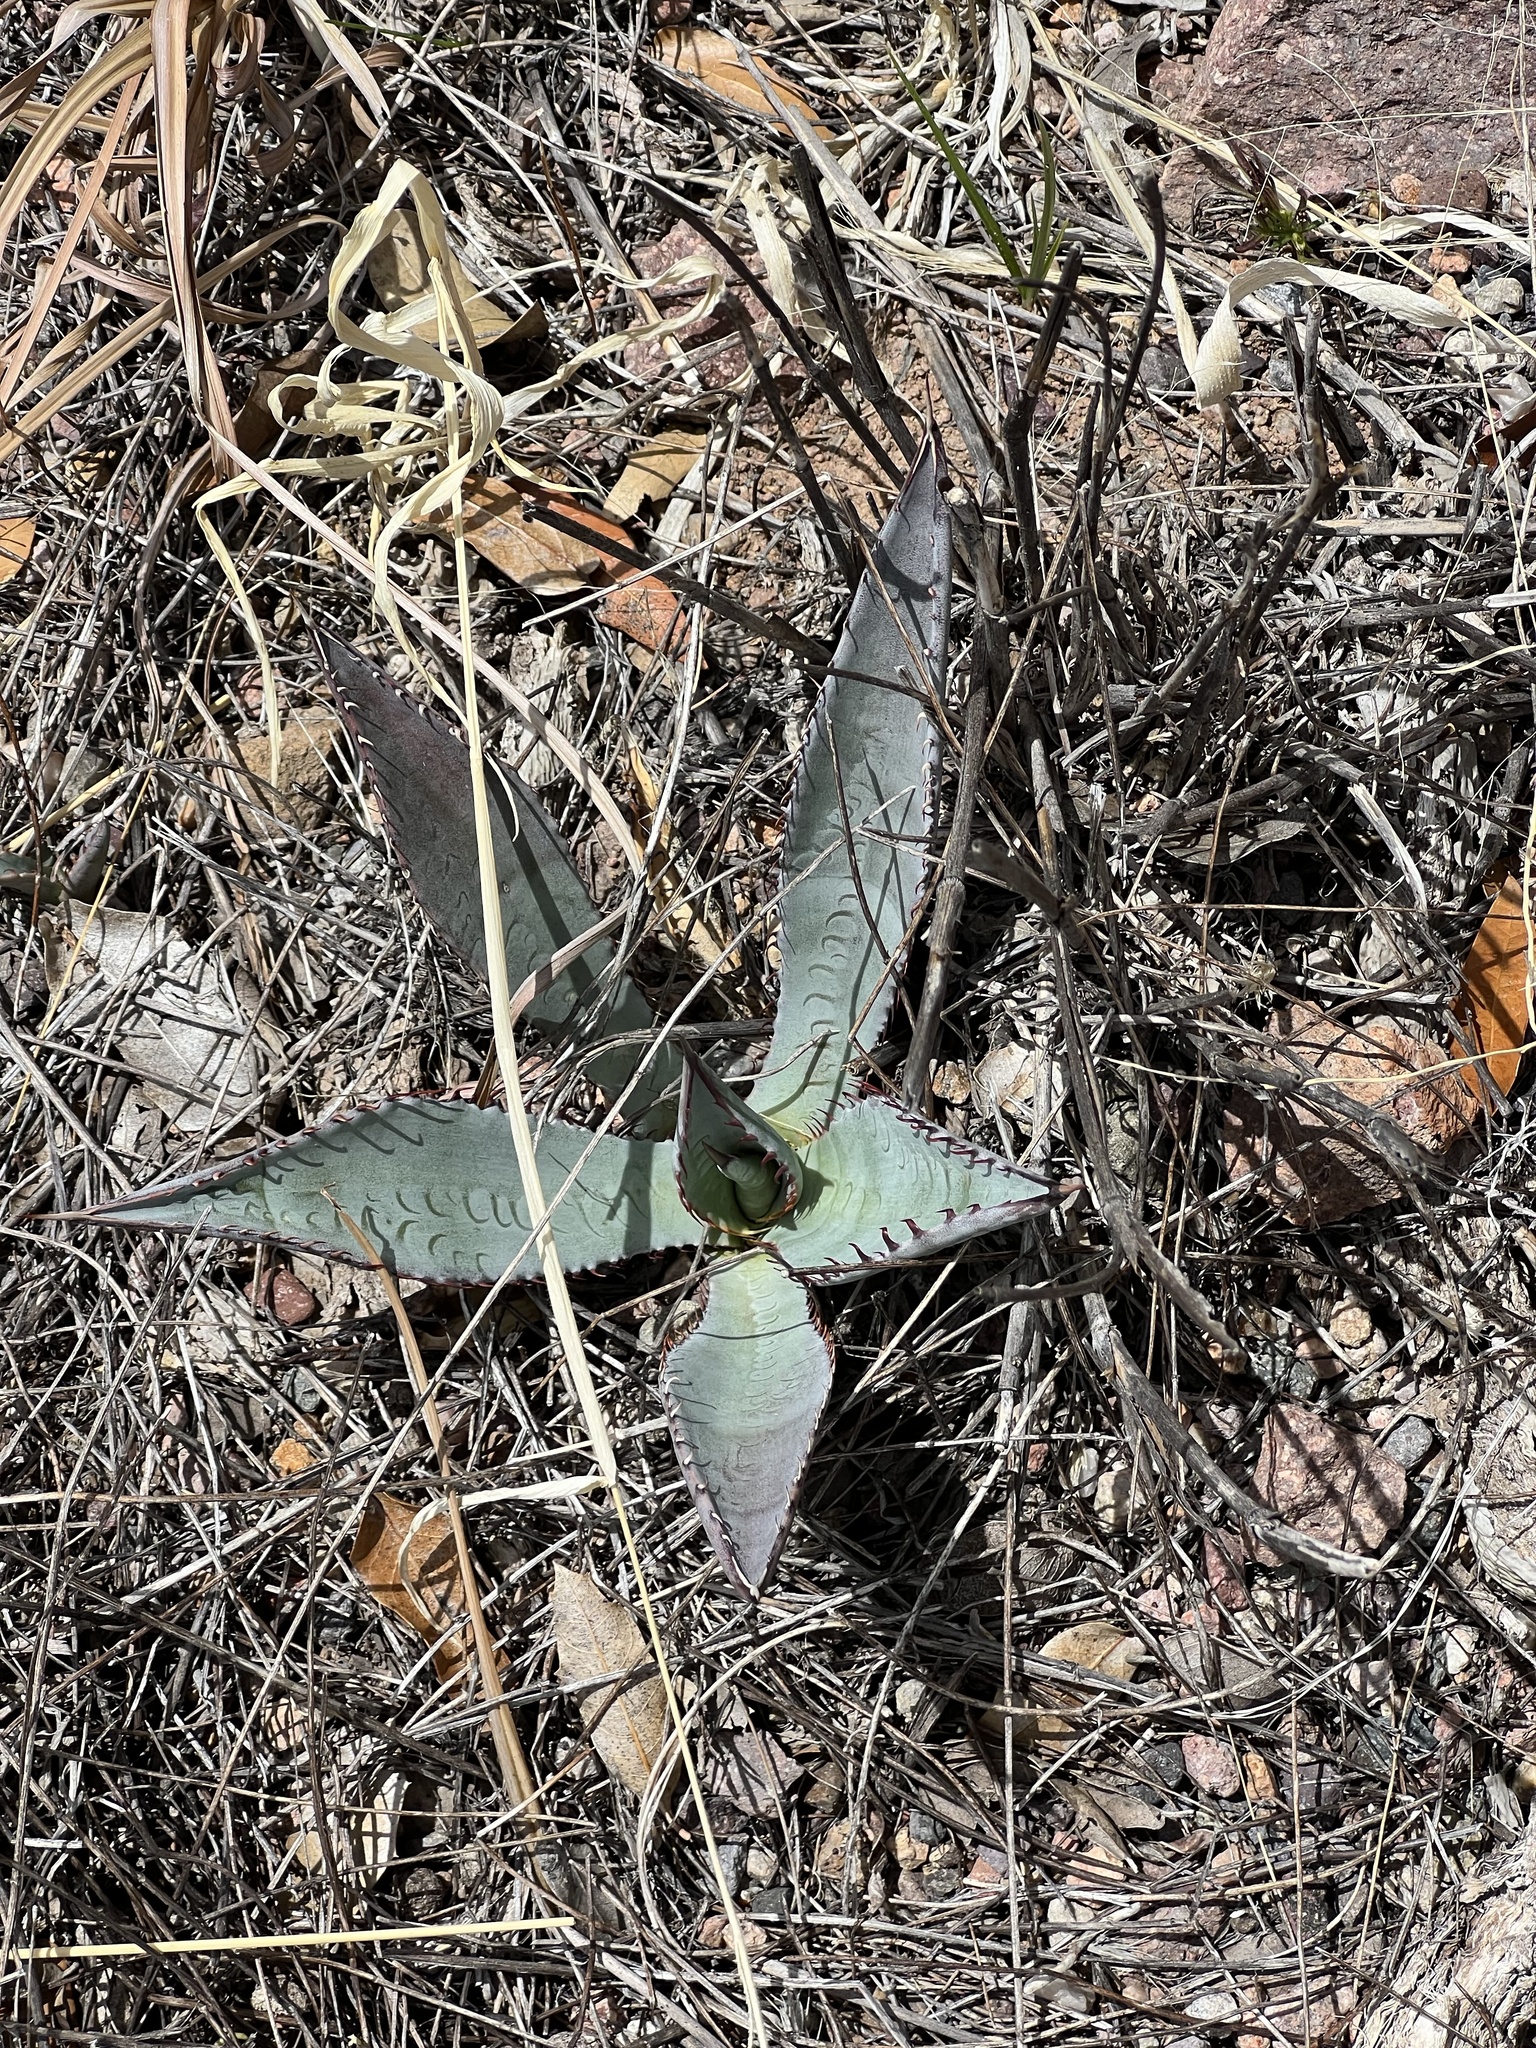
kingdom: Plantae
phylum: Tracheophyta
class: Liliopsida
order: Asparagales
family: Asparagaceae
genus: Agave
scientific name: Agave palmeri
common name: Palmer agave
